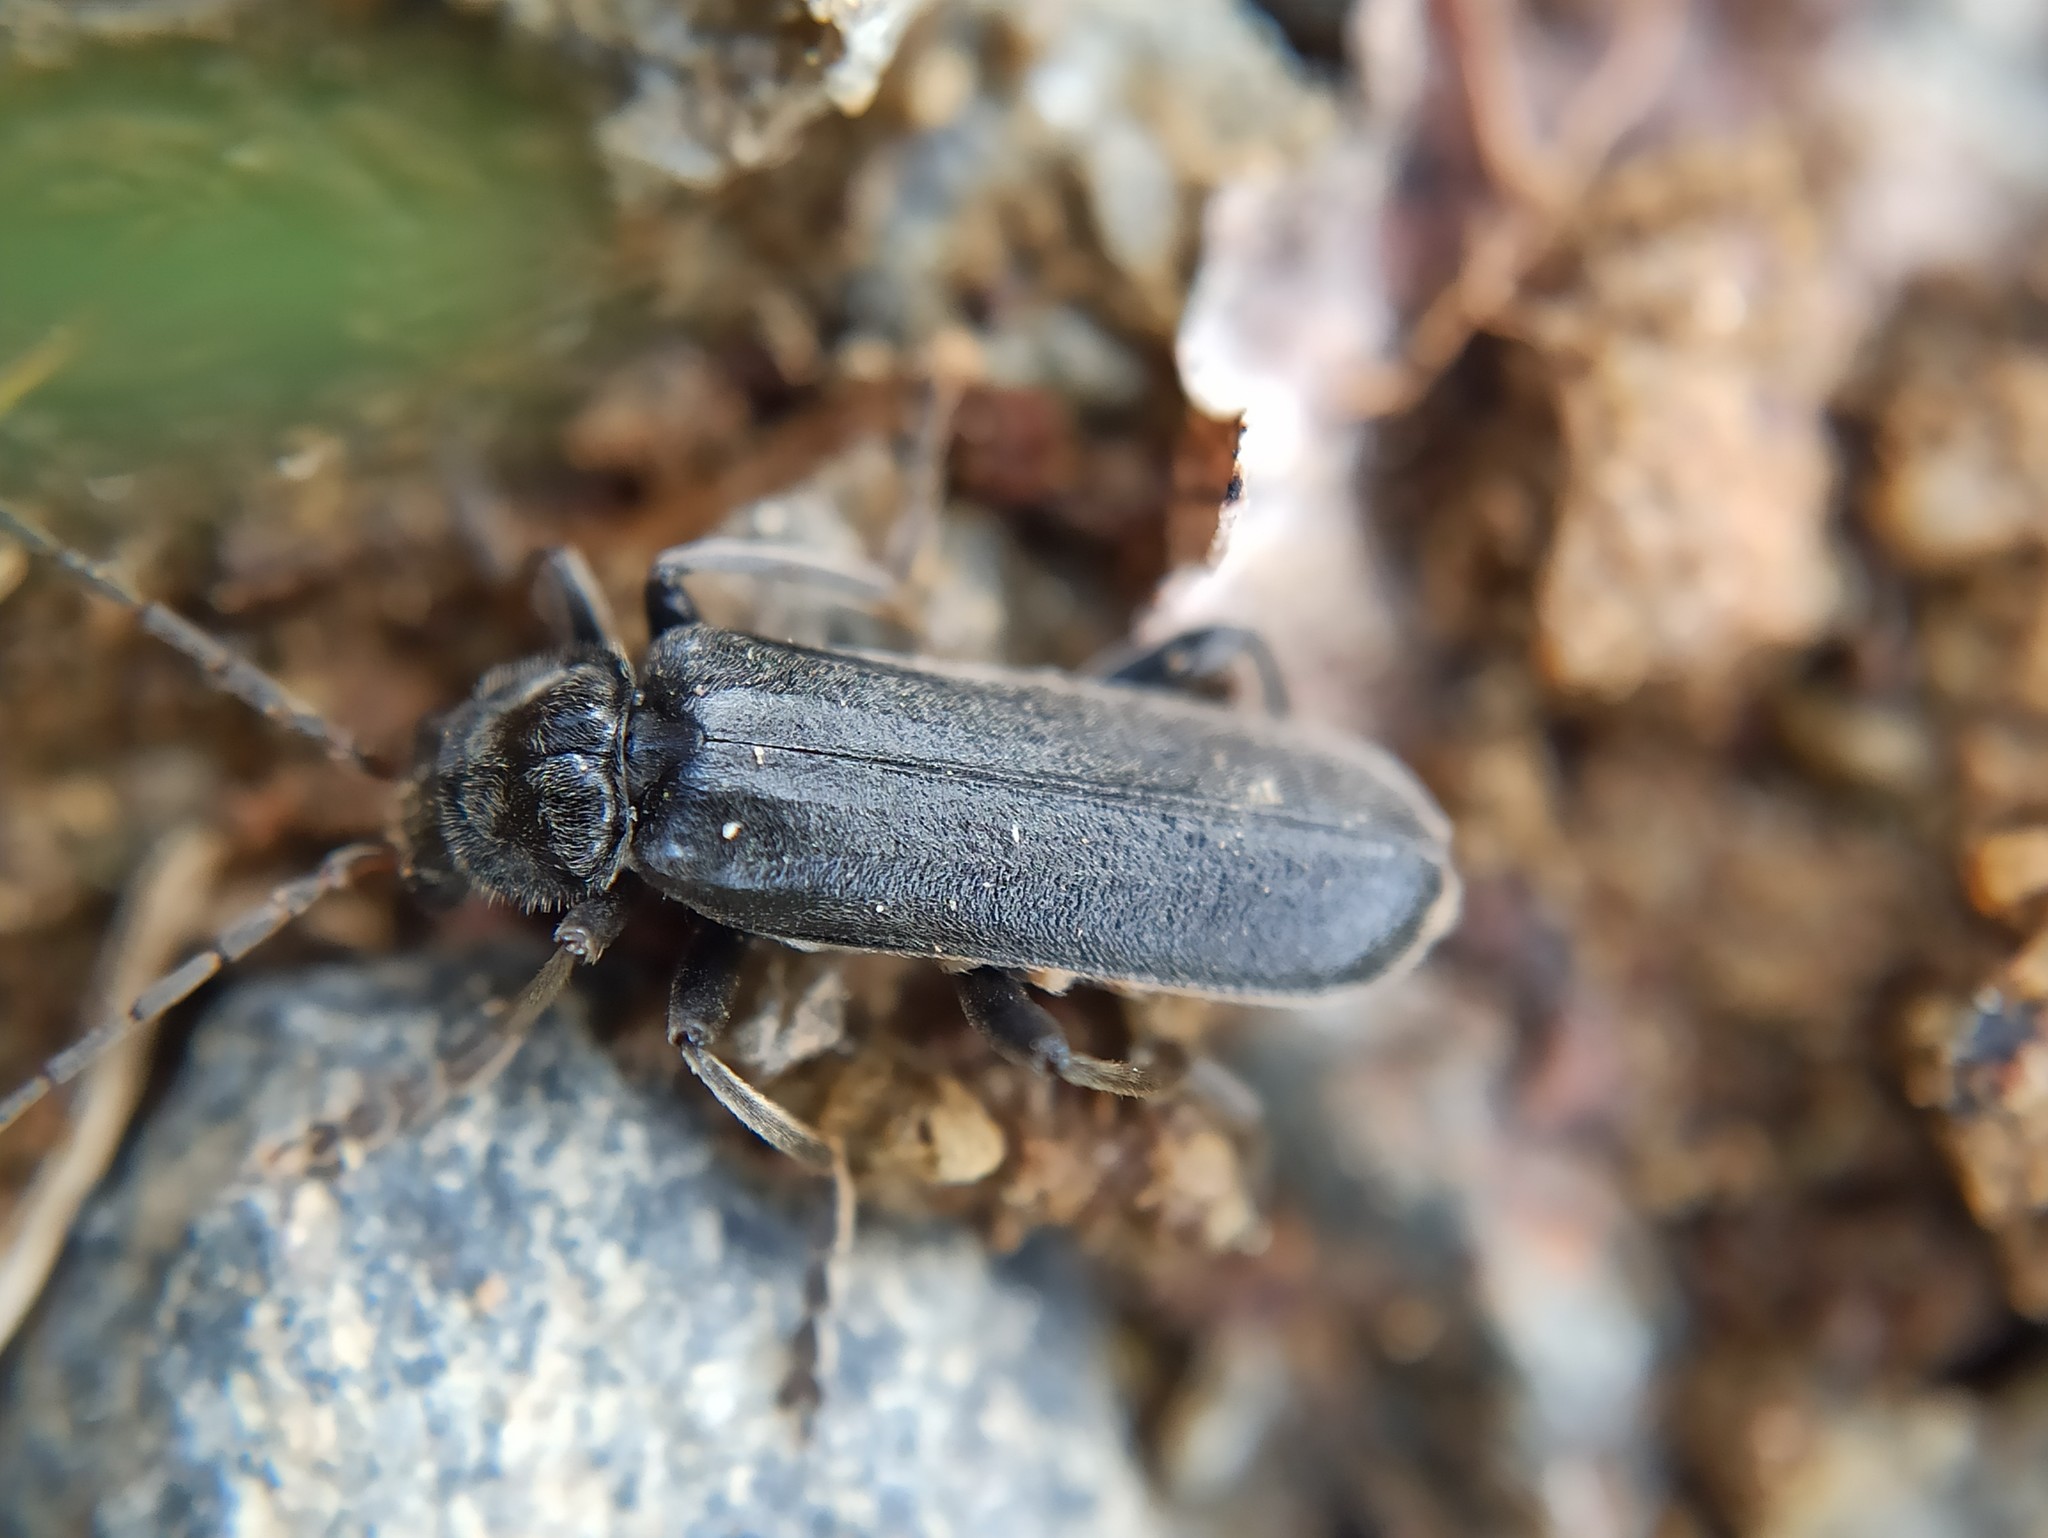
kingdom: Animalia
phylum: Arthropoda
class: Insecta
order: Coleoptera
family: Cantharidae
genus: Cantharis
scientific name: Cantharis tristis
